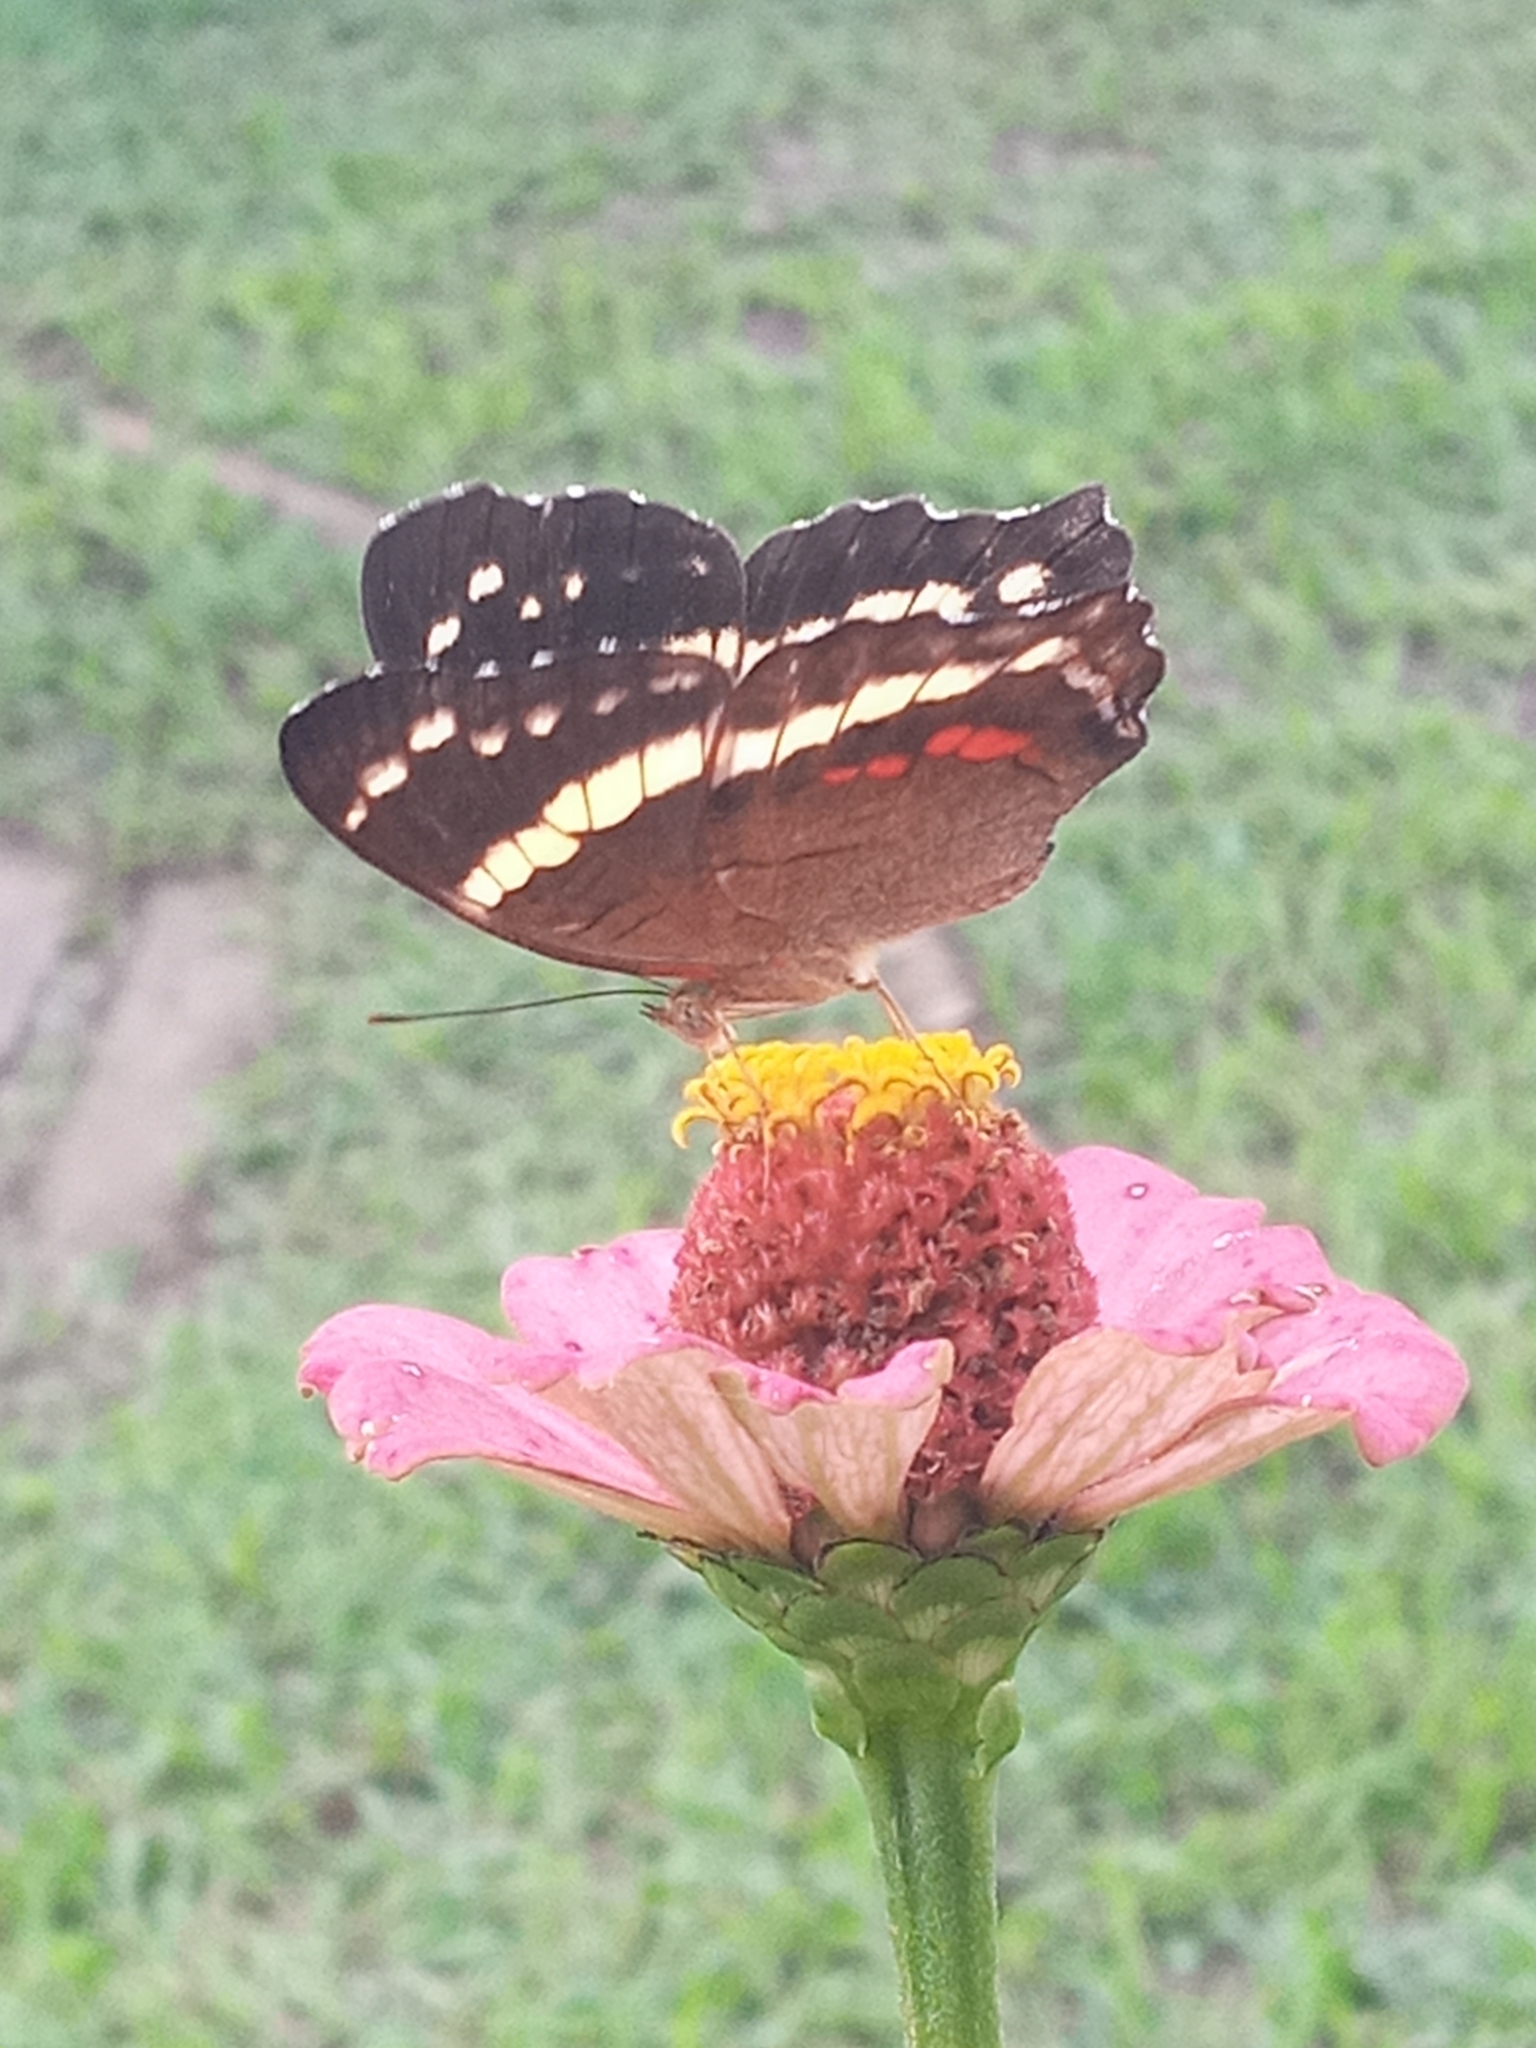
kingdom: Animalia
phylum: Arthropoda
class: Insecta
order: Lepidoptera
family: Nymphalidae
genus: Anartia
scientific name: Anartia fatima
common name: Banded peacock
